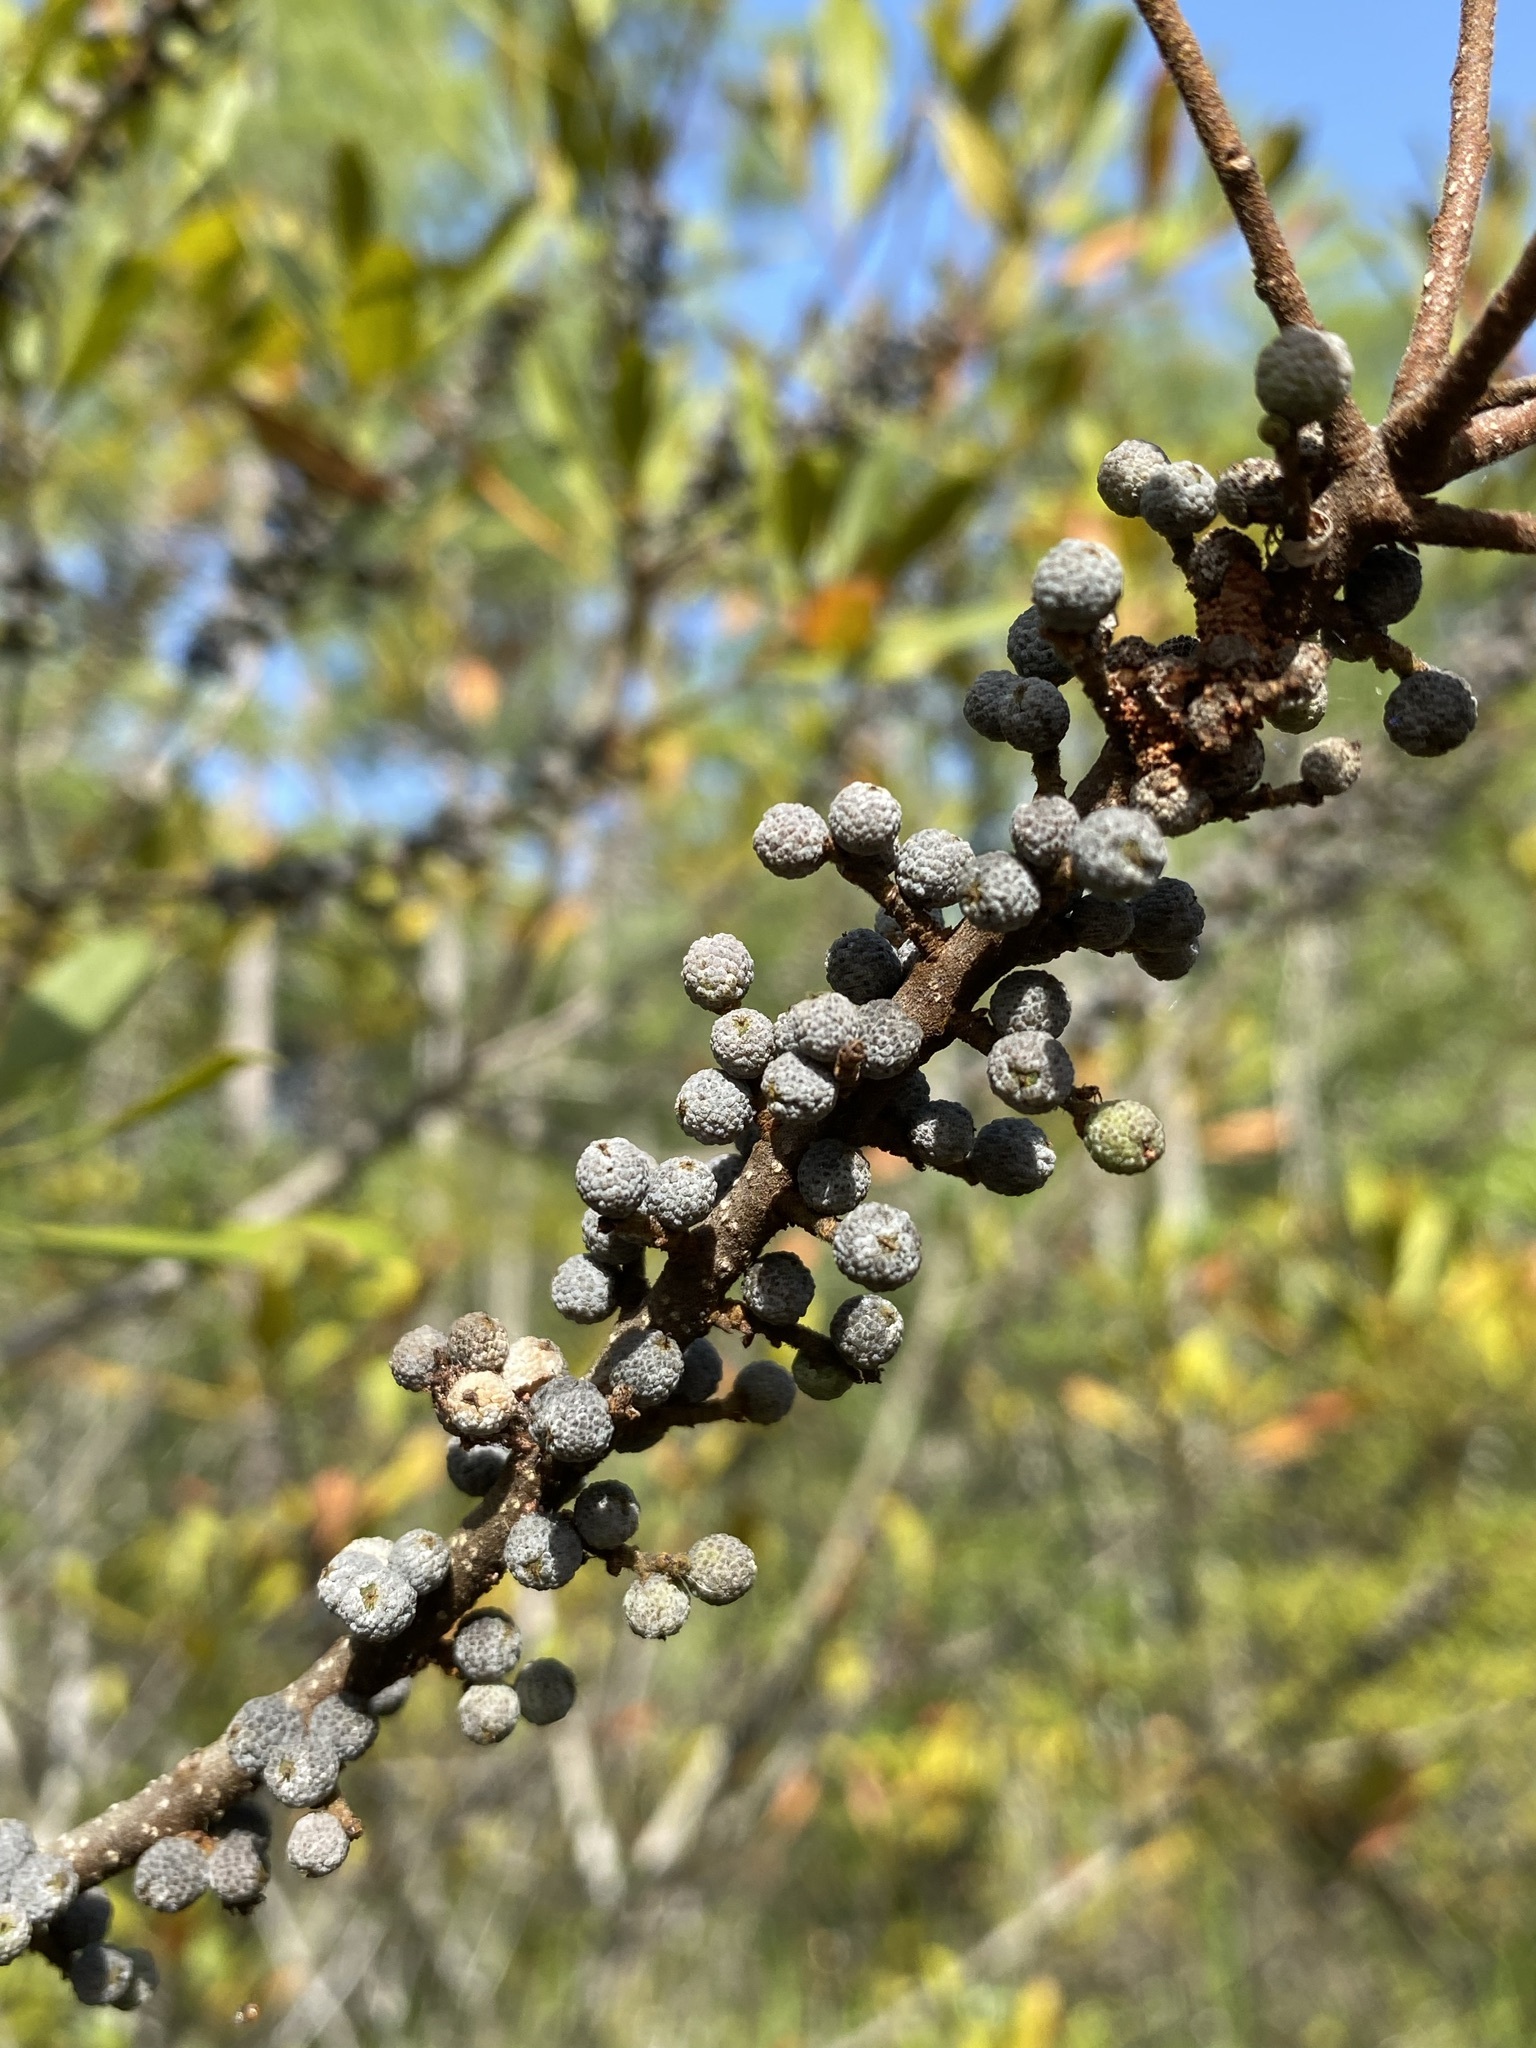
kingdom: Plantae
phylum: Tracheophyta
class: Magnoliopsida
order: Fagales
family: Myricaceae
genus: Morella
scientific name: Morella cerifera
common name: Wax myrtle
